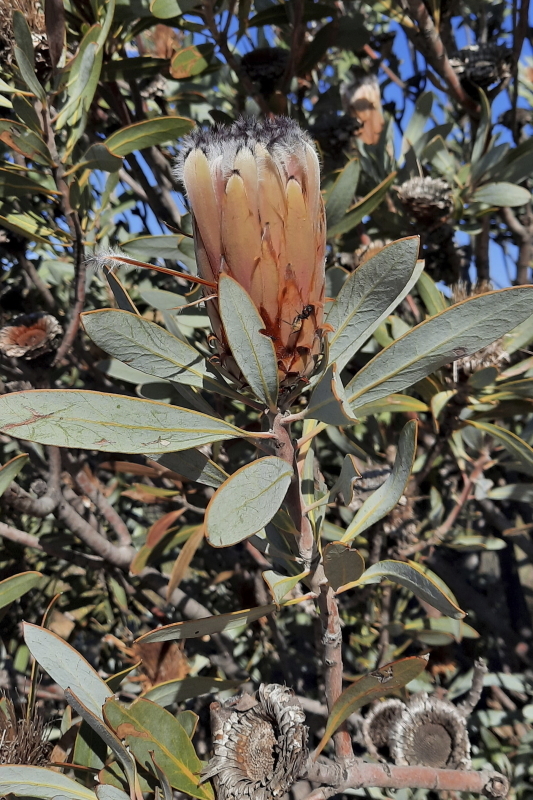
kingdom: Plantae
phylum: Tracheophyta
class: Magnoliopsida
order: Proteales
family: Proteaceae
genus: Protea
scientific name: Protea laurifolia
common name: Grey-leaf sugarbsh
